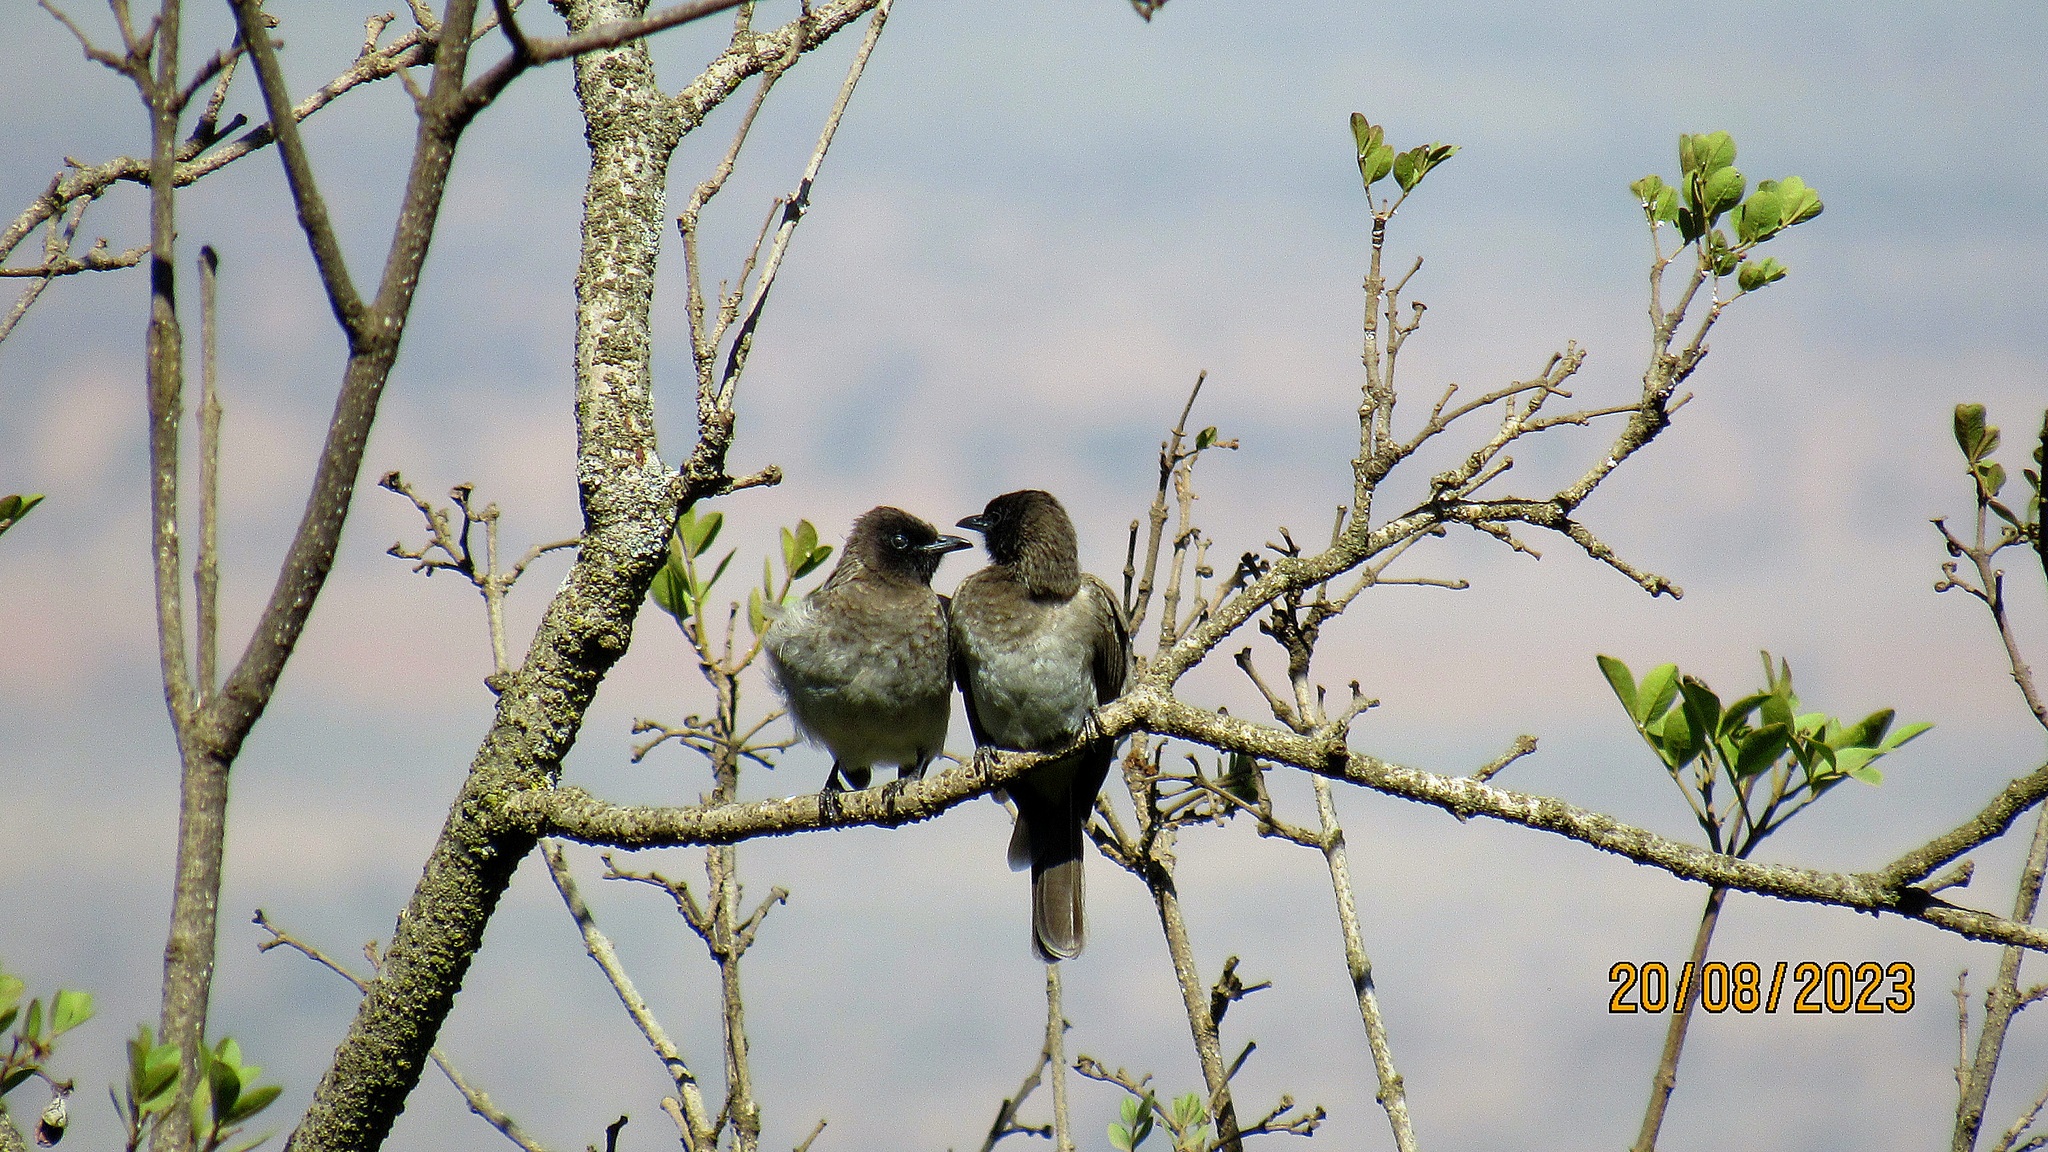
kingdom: Animalia
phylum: Chordata
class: Aves
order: Passeriformes
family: Pycnonotidae
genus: Pycnonotus
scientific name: Pycnonotus barbatus
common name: Common bulbul
